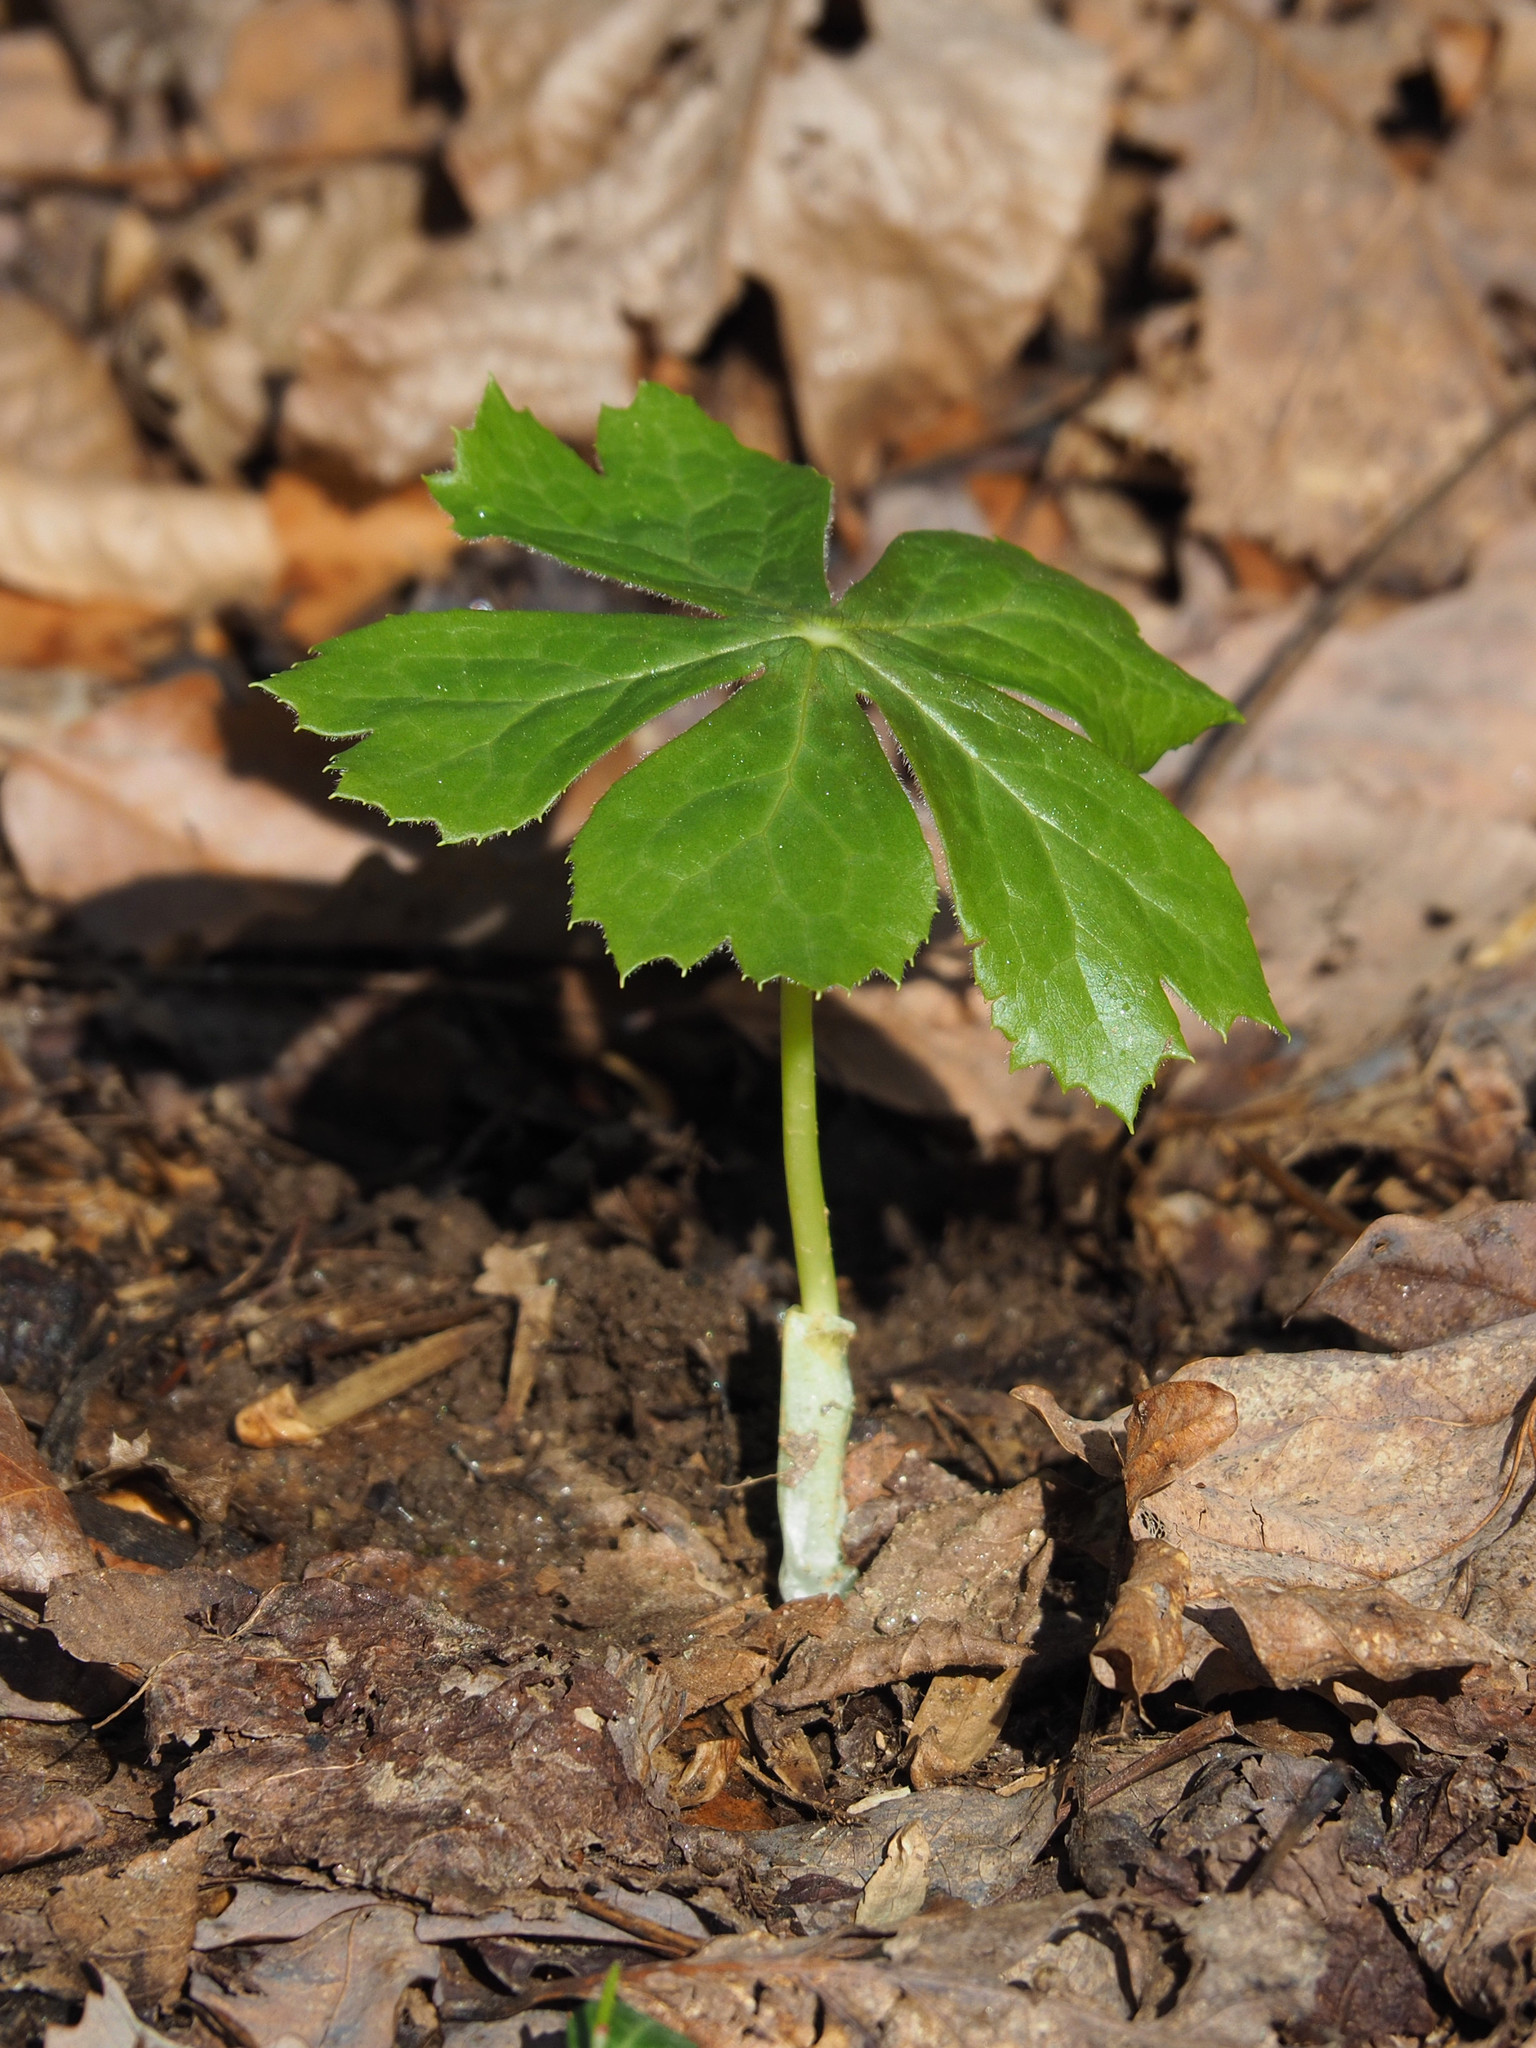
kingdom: Plantae
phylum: Tracheophyta
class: Magnoliopsida
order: Ranunculales
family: Berberidaceae
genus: Podophyllum
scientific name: Podophyllum peltatum
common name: Wild mandrake
